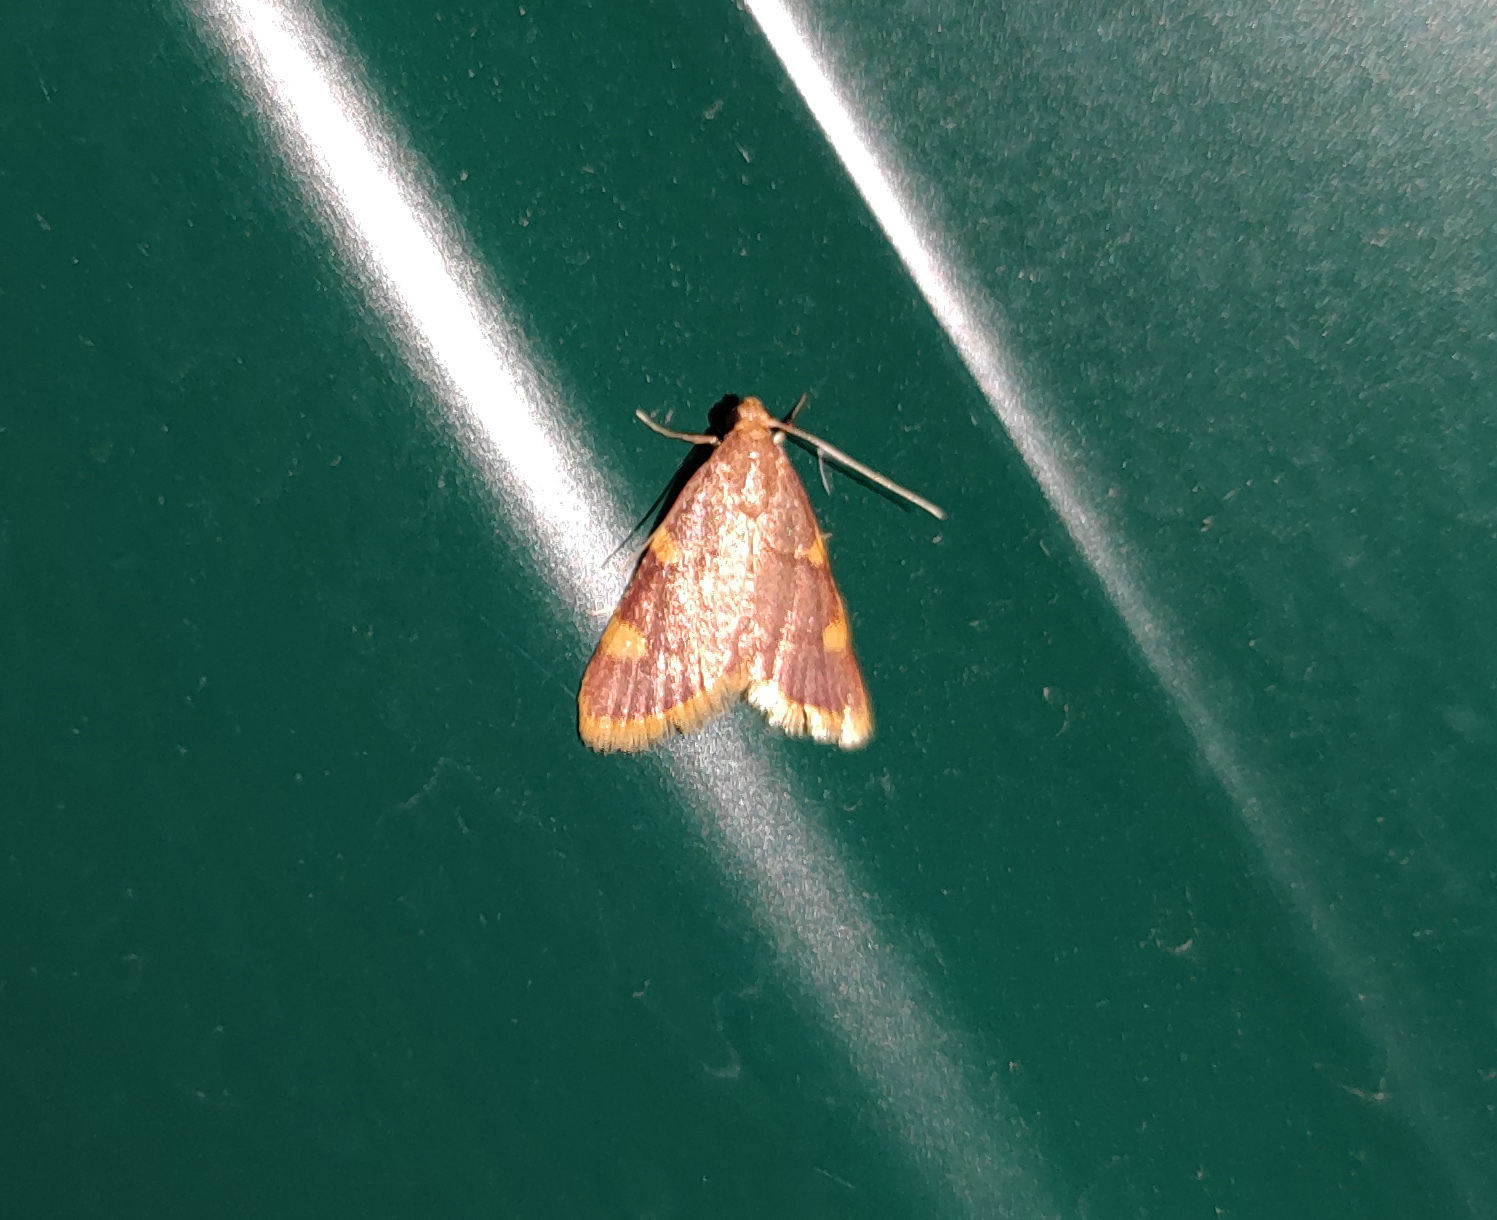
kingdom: Animalia
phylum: Arthropoda
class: Insecta
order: Lepidoptera
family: Pyralidae
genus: Hypsopygia
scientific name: Hypsopygia costalis
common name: Gold triangle
